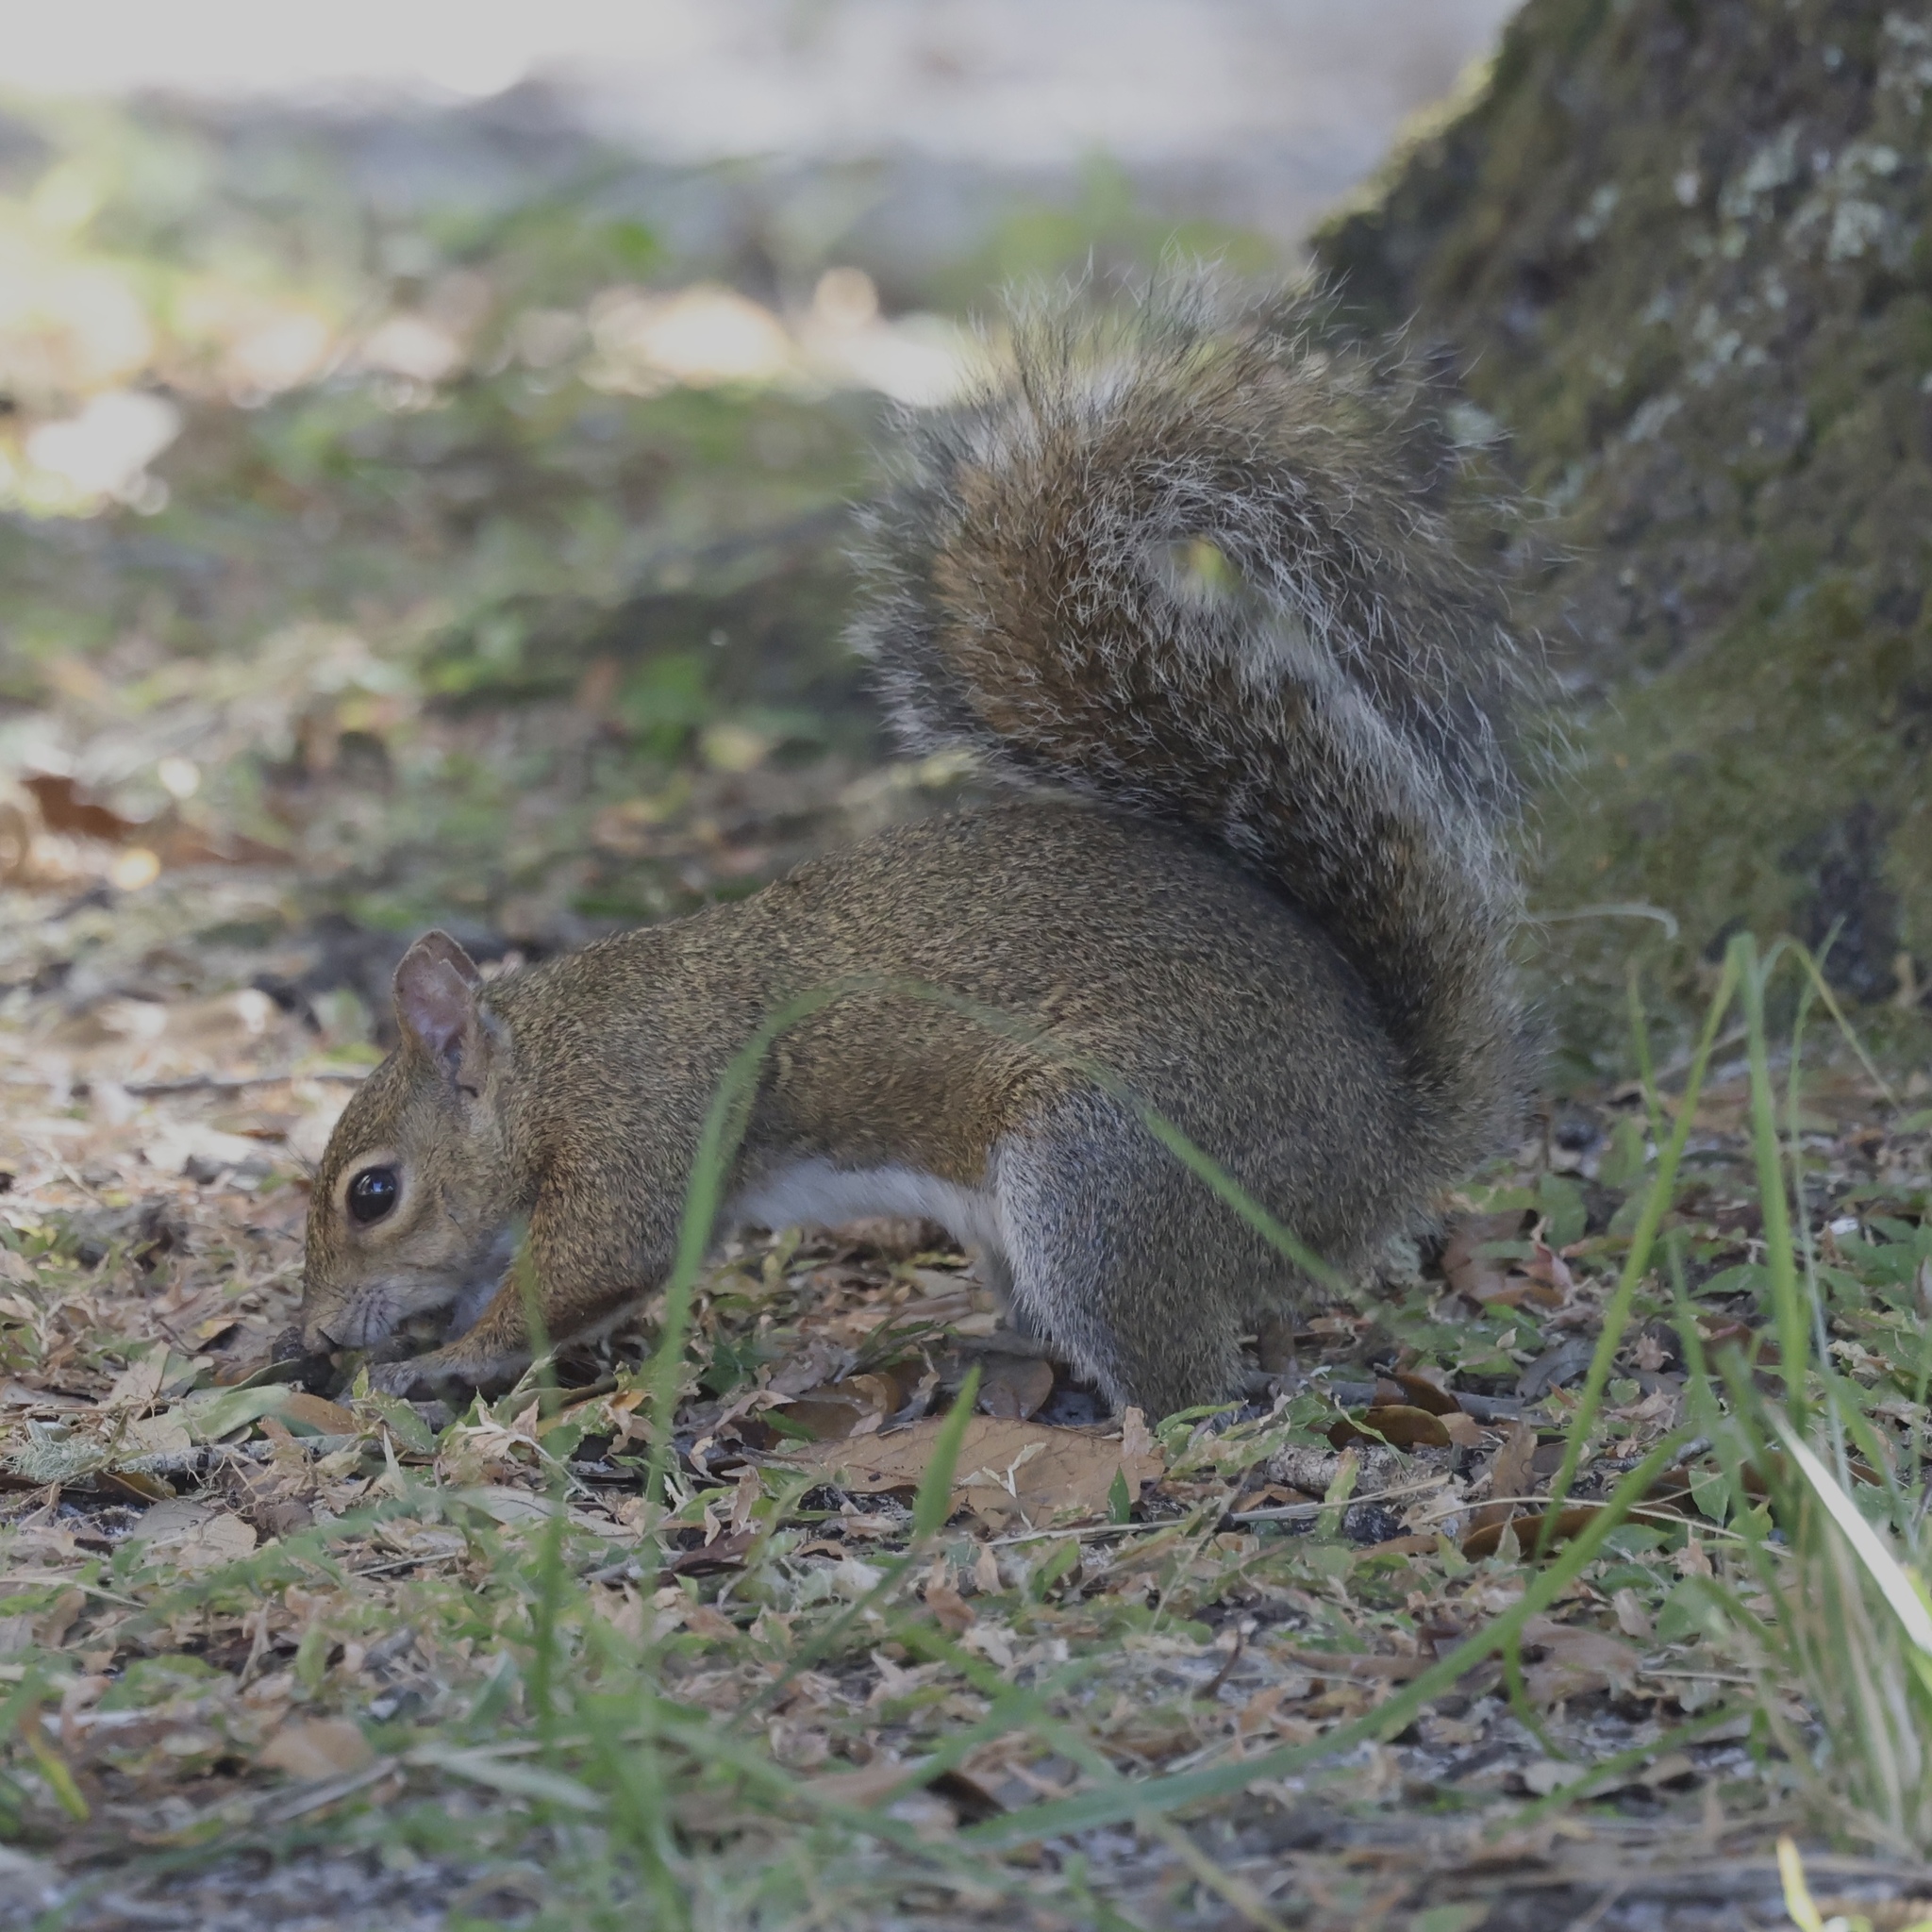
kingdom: Animalia
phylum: Chordata
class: Mammalia
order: Rodentia
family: Sciuridae
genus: Sciurus
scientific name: Sciurus carolinensis
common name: Eastern gray squirrel
